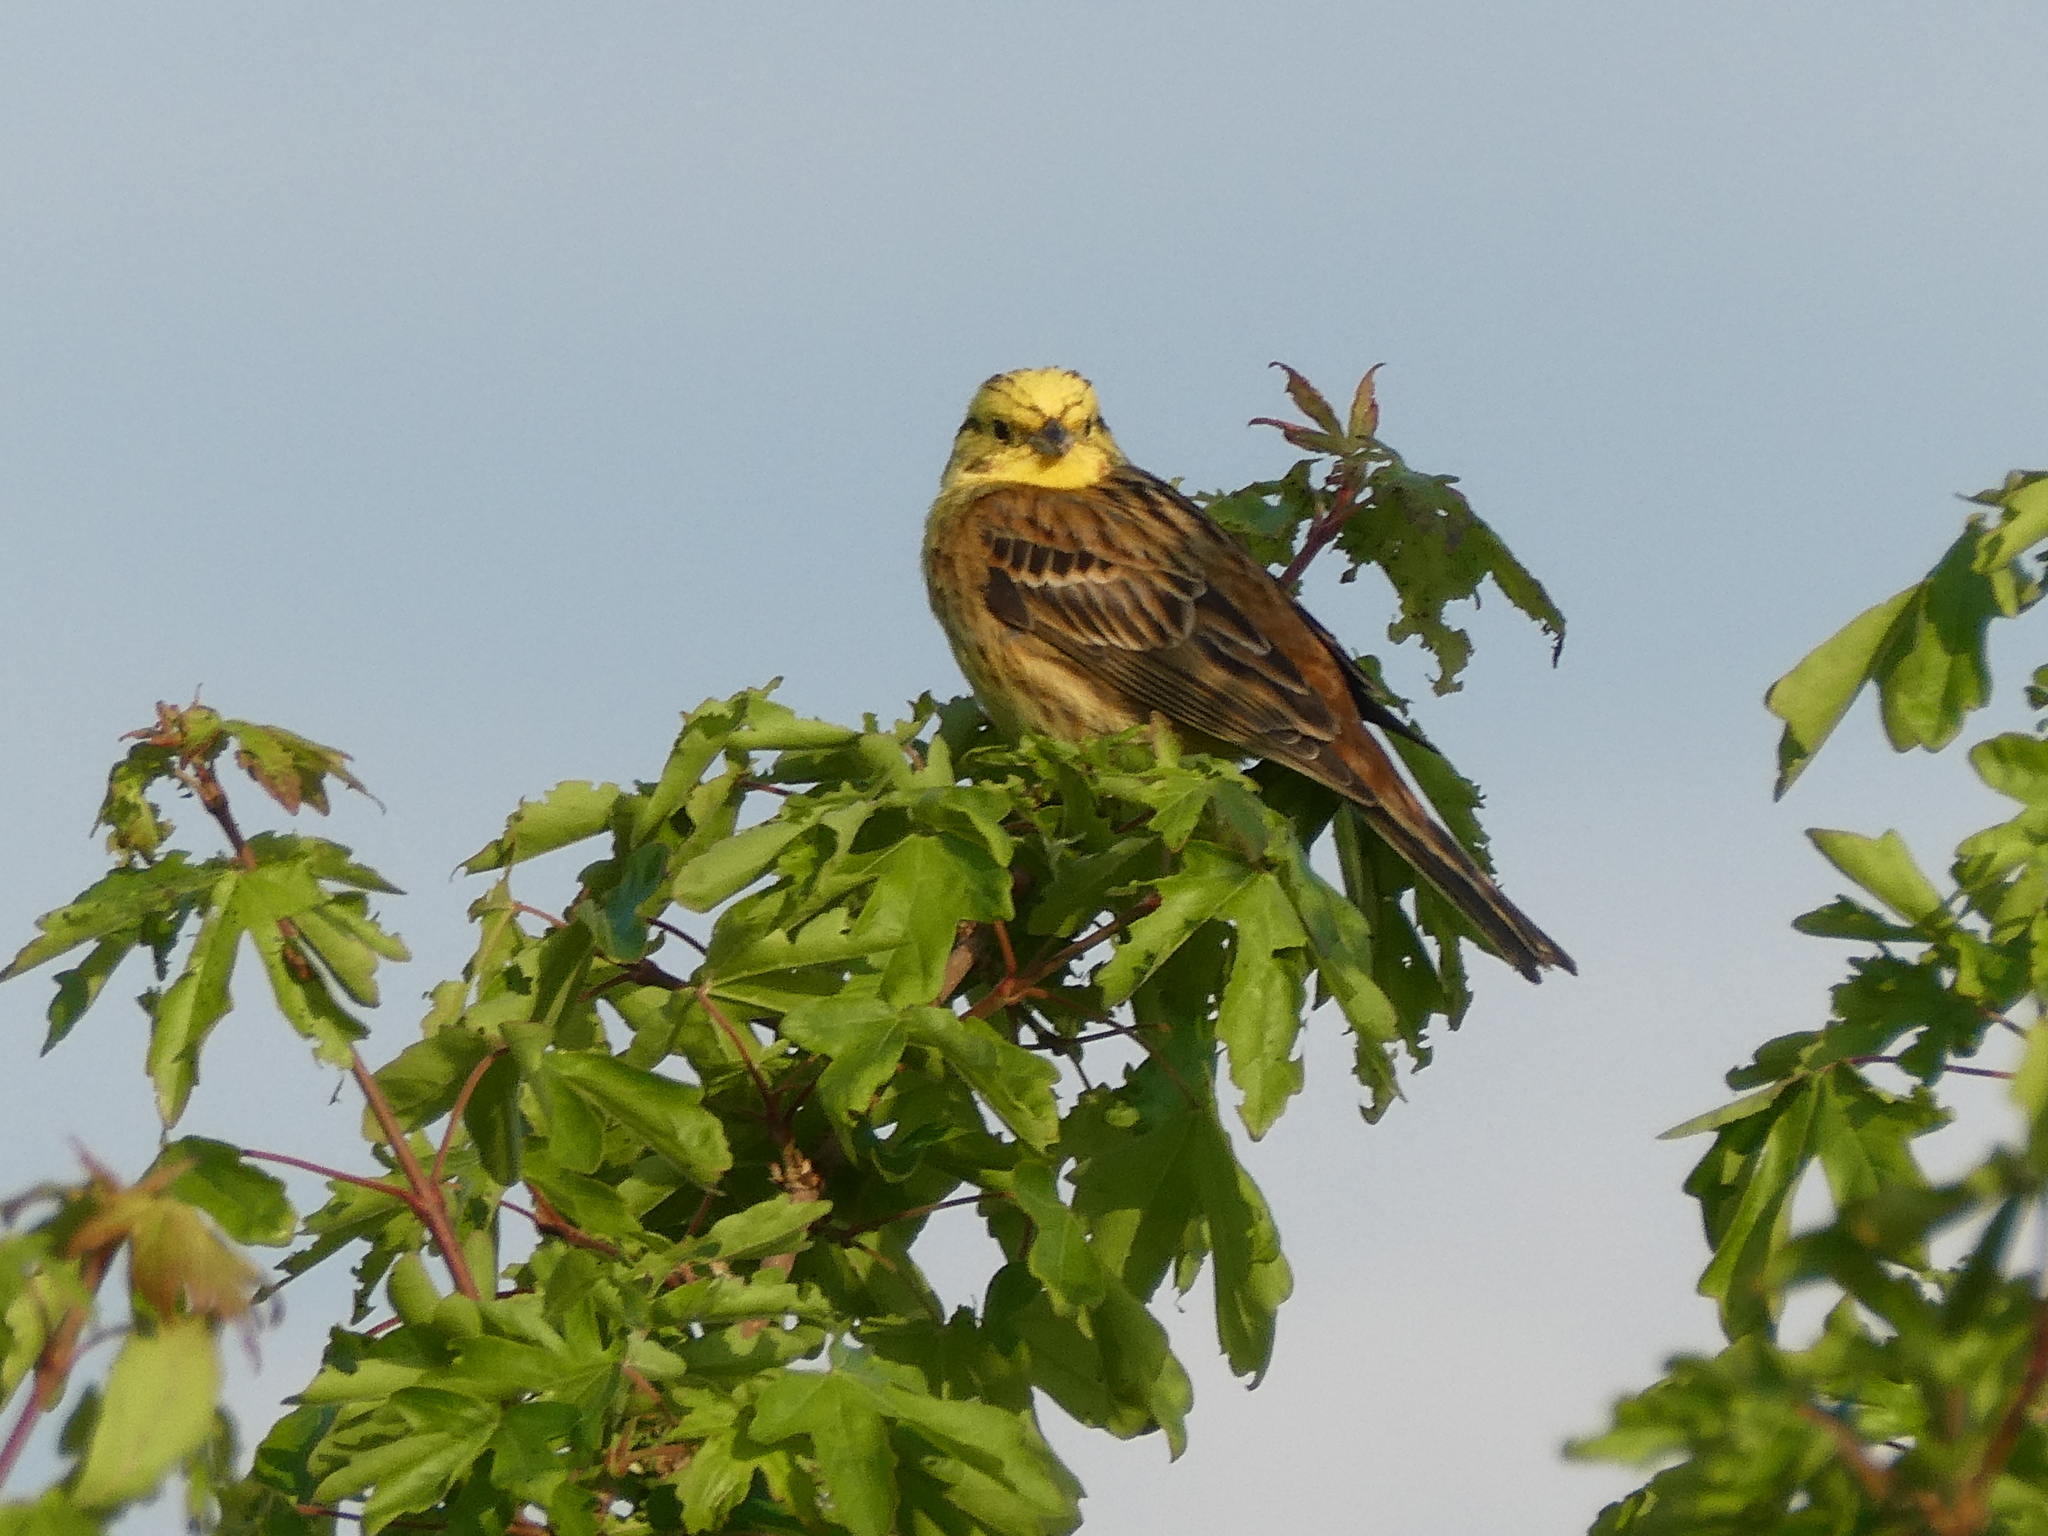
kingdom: Animalia
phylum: Chordata
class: Aves
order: Passeriformes
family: Emberizidae
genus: Emberiza
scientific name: Emberiza citrinella
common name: Yellowhammer
